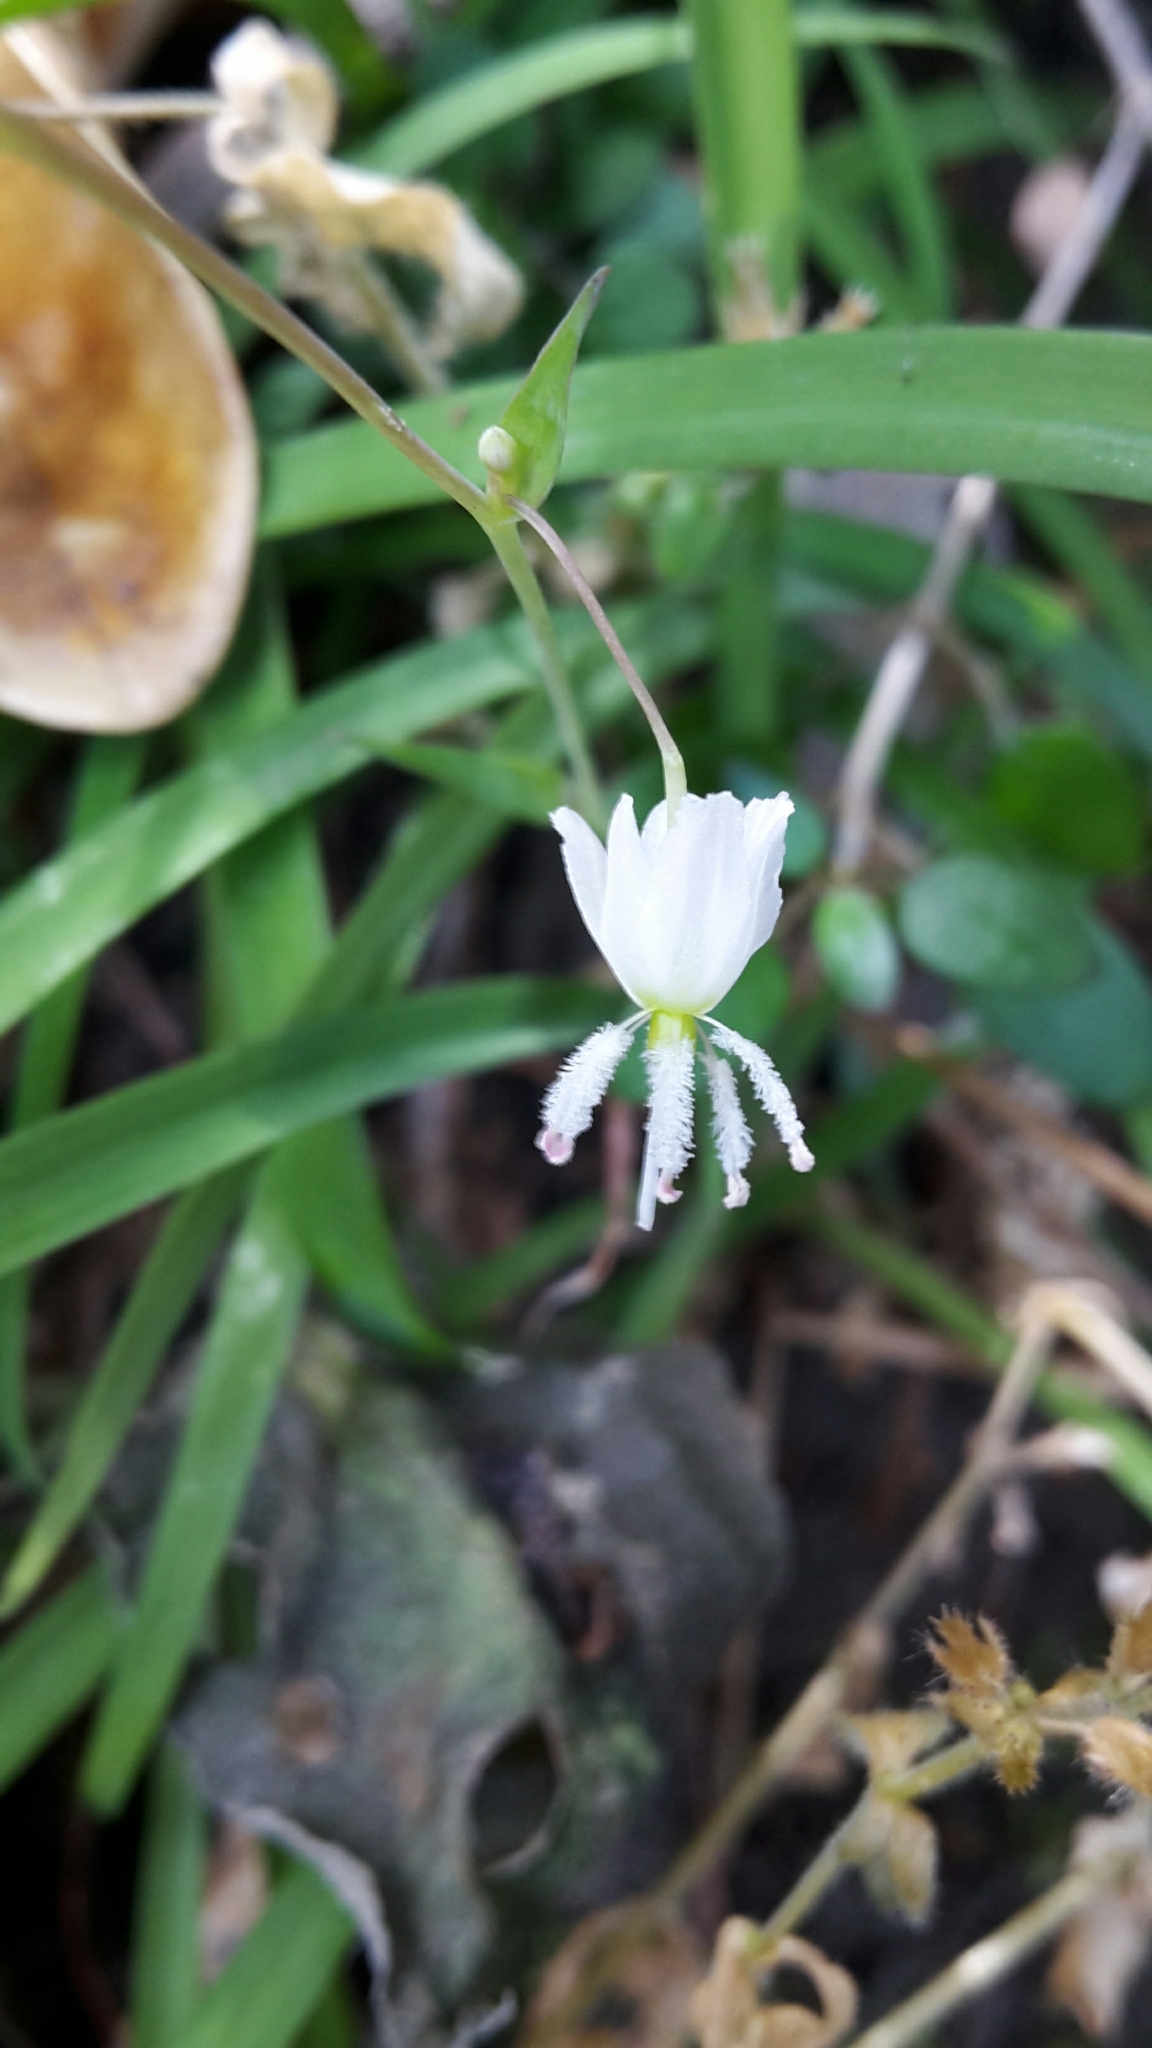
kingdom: Plantae
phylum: Tracheophyta
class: Liliopsida
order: Asparagales
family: Asparagaceae
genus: Arthropodium
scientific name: Arthropodium candidum
